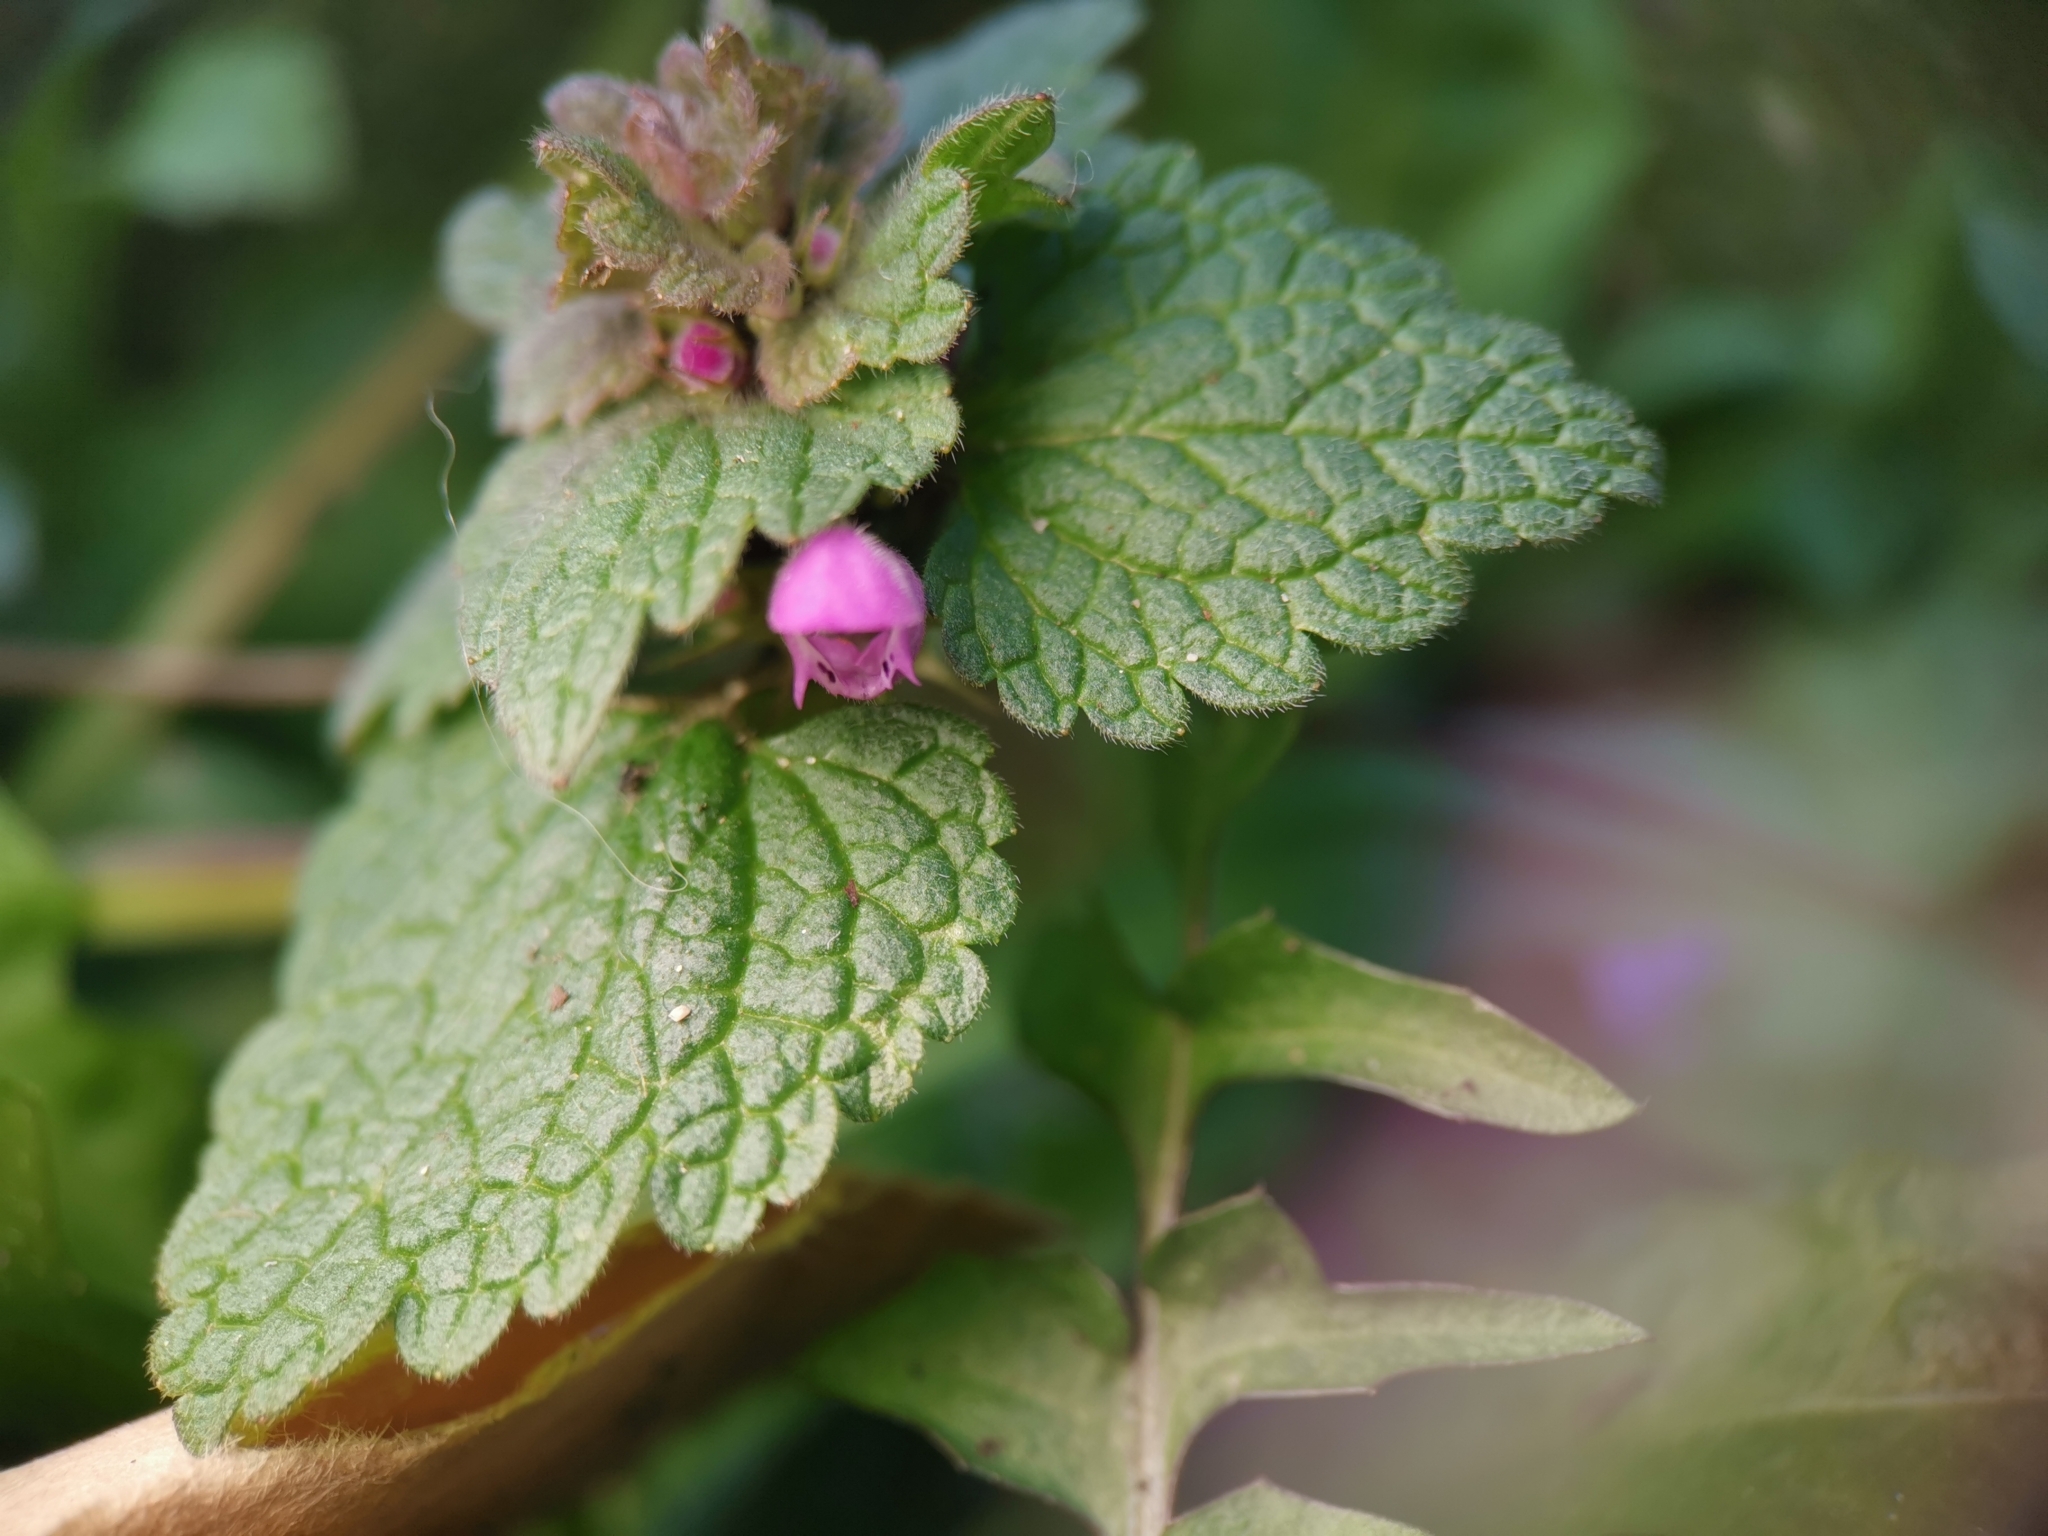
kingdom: Plantae
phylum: Tracheophyta
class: Magnoliopsida
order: Lamiales
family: Lamiaceae
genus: Lamium
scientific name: Lamium purpureum
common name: Red dead-nettle
